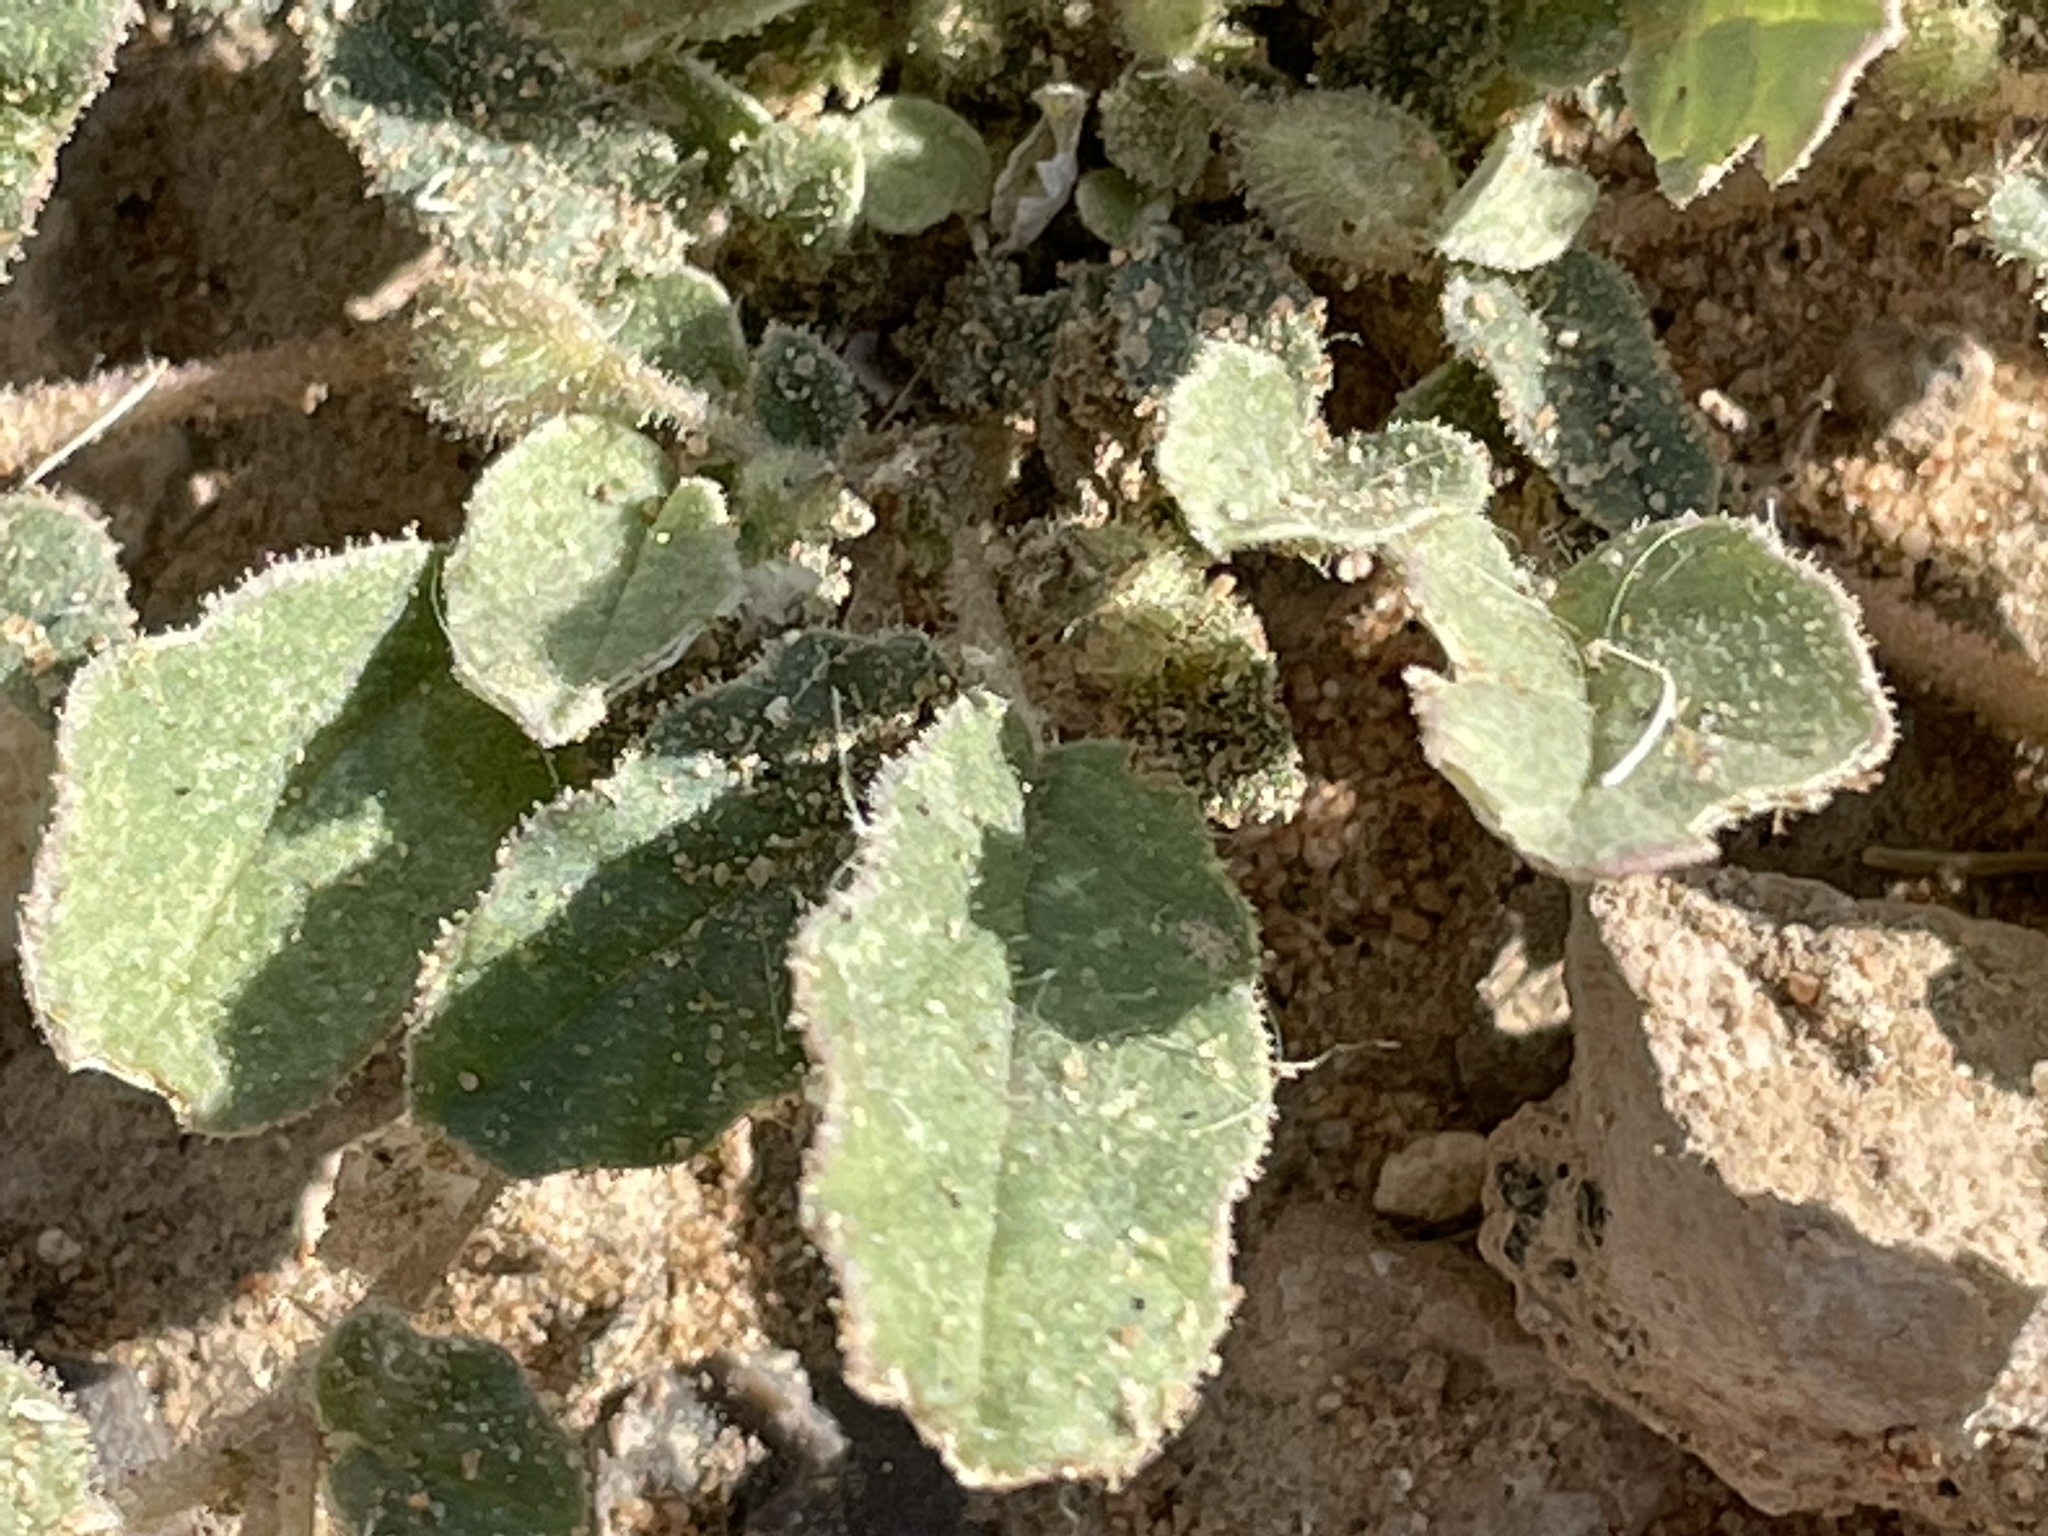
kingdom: Plantae
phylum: Tracheophyta
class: Magnoliopsida
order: Caryophyllales
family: Nyctaginaceae
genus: Allionia
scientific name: Allionia incarnata
